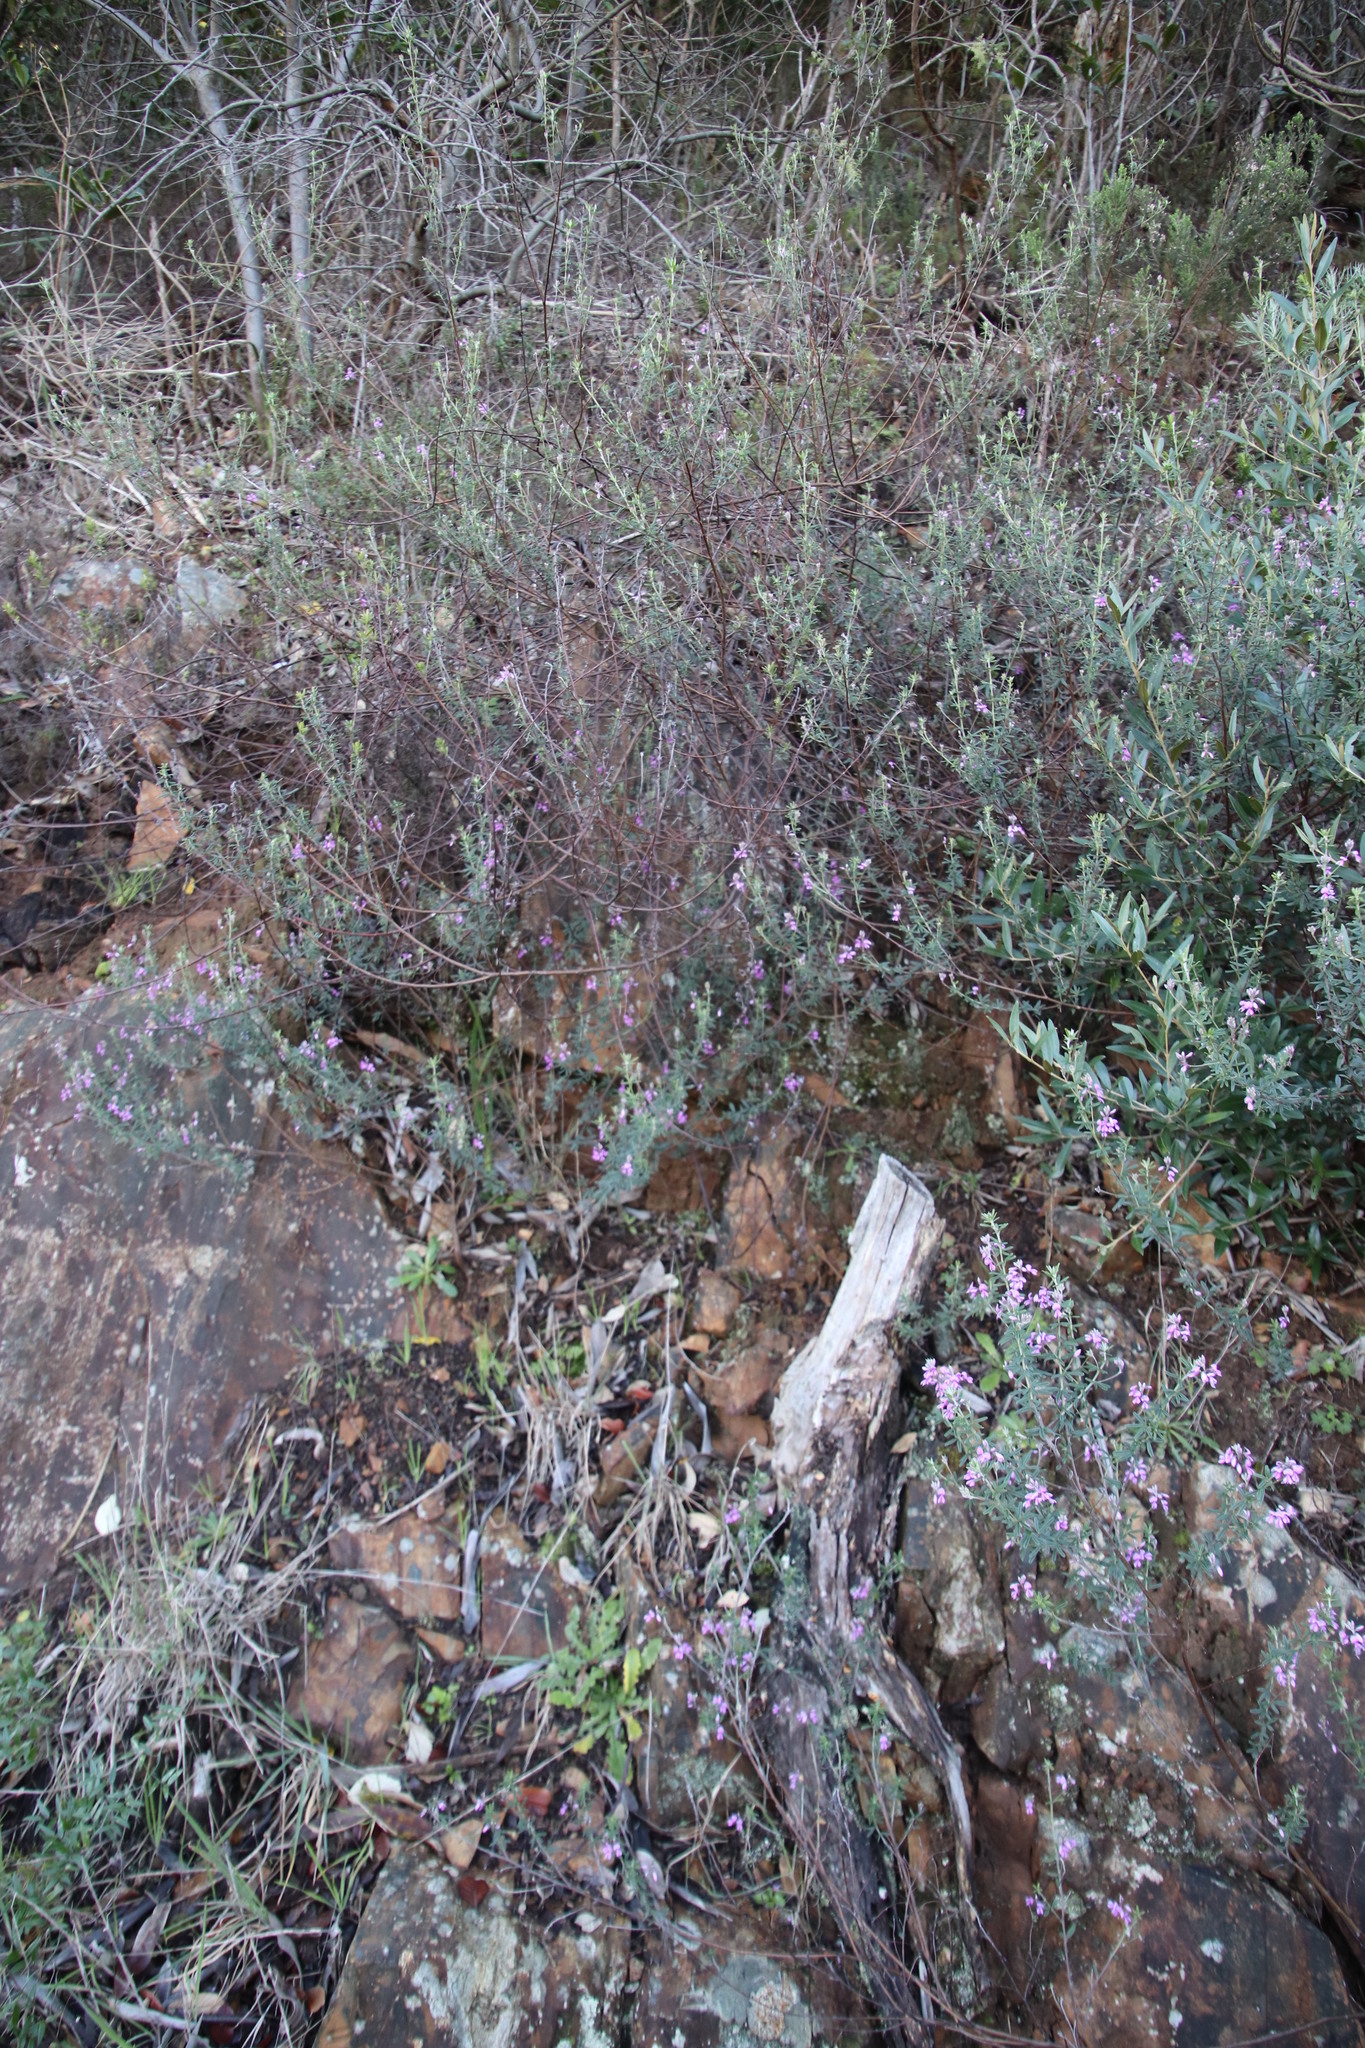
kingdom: Plantae
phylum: Tracheophyta
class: Magnoliopsida
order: Fabales
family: Fabaceae
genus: Indigofera
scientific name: Indigofera filiformis
